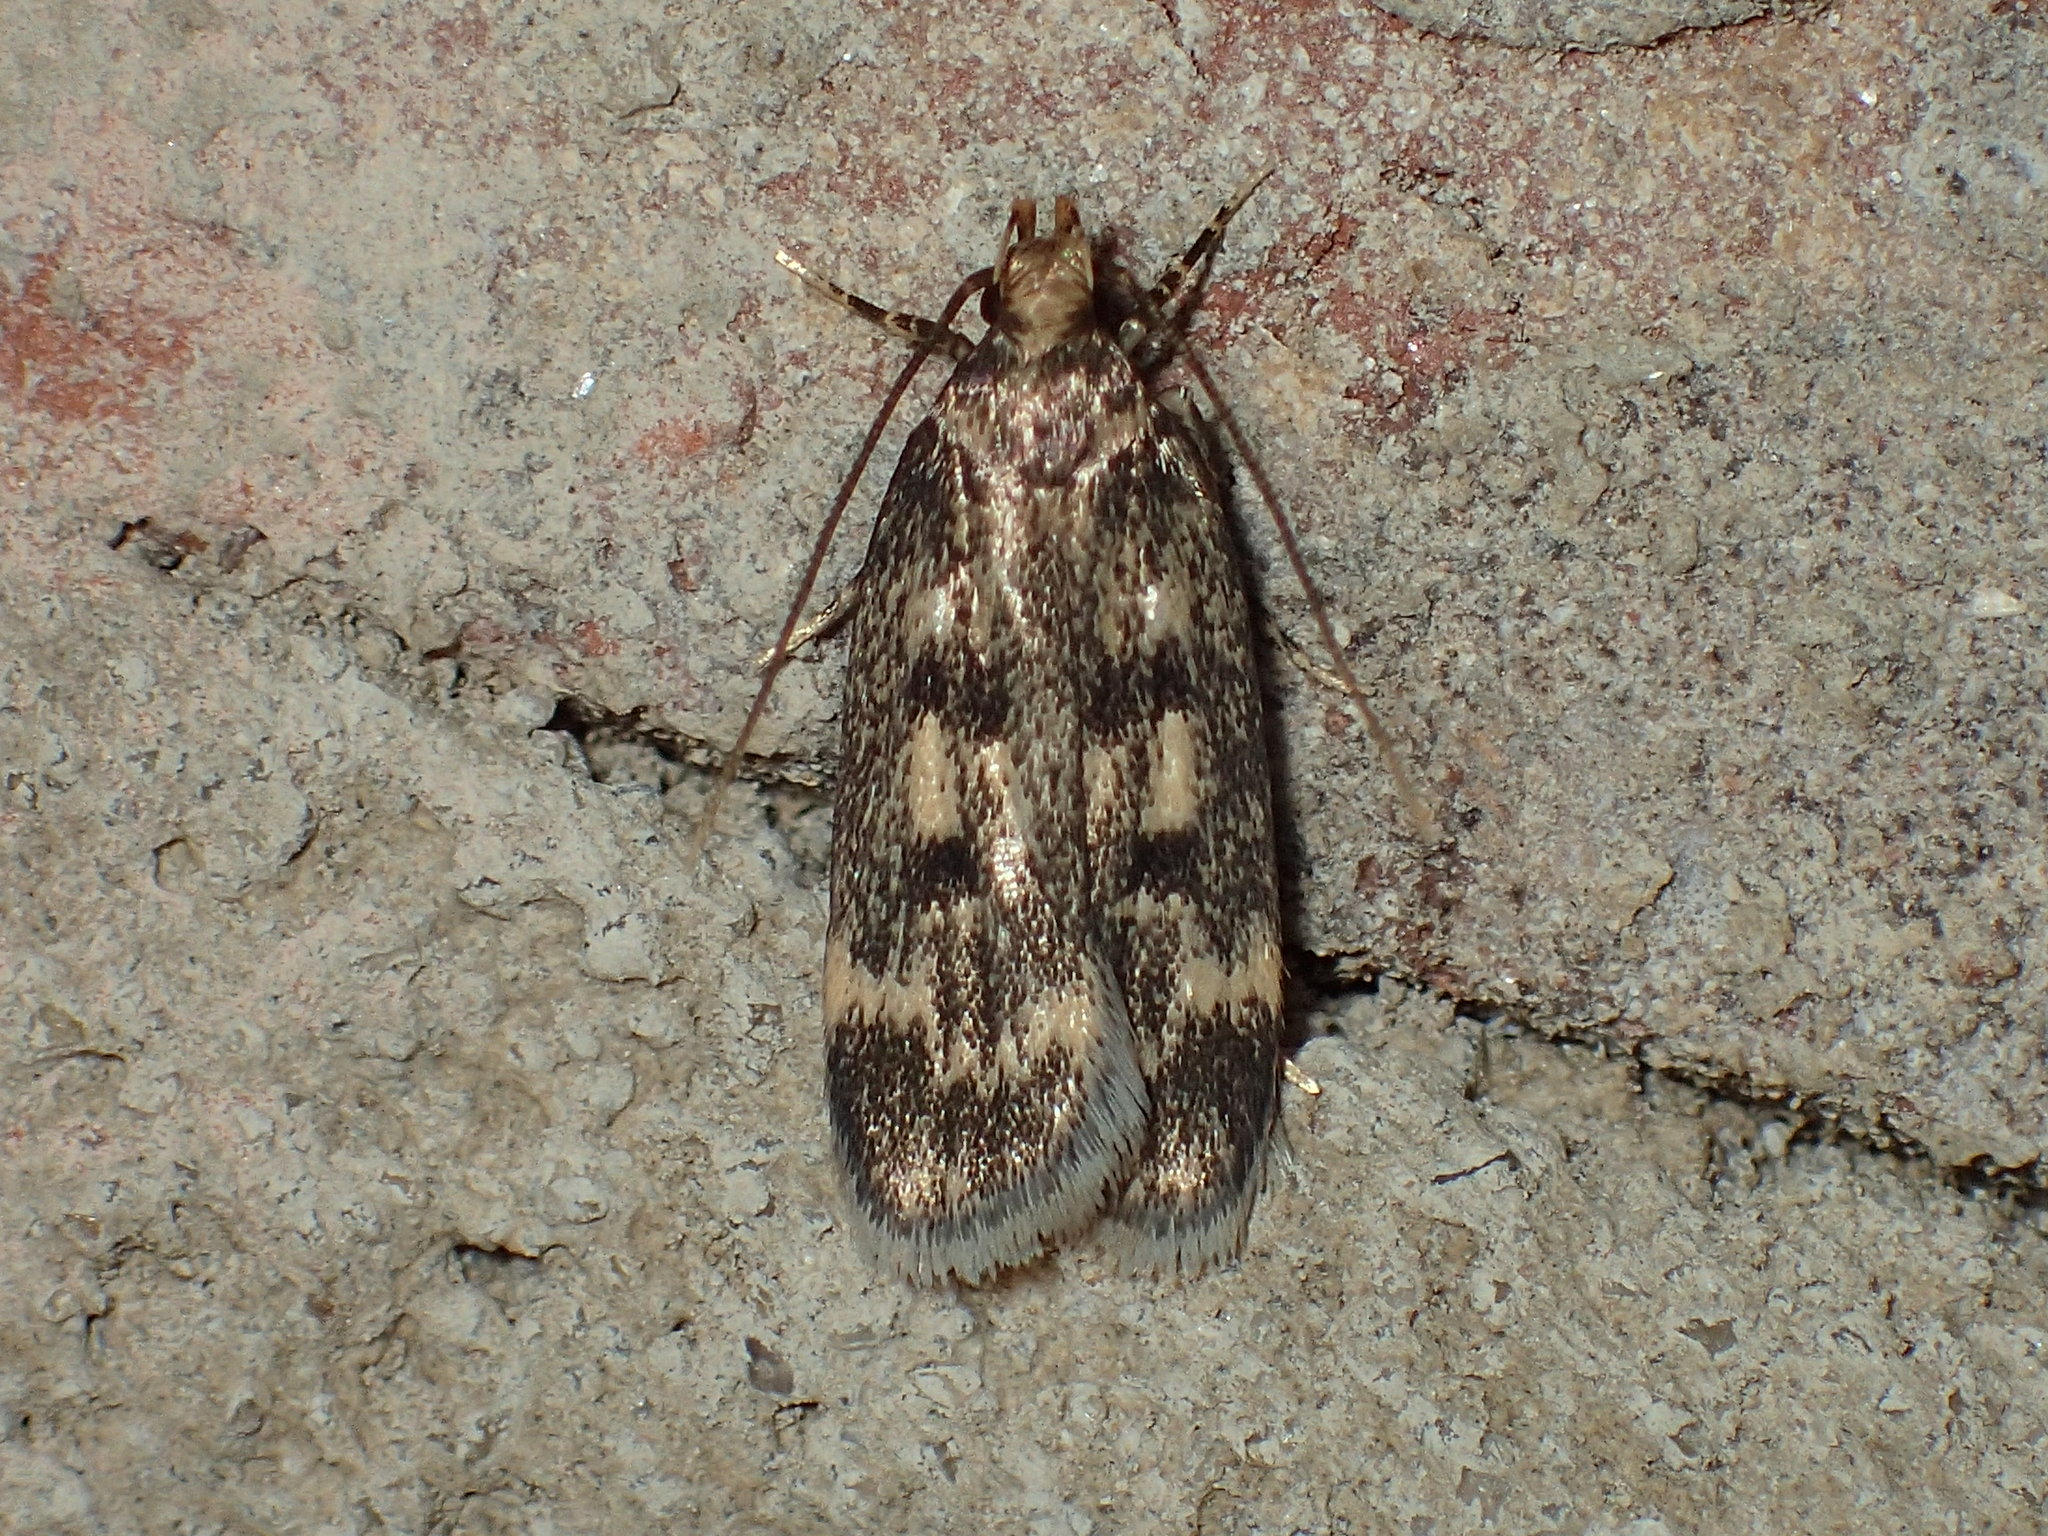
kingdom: Animalia
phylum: Arthropoda
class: Insecta
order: Lepidoptera
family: Lecithoceridae
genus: Martyringa
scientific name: Martyringa latipennis
